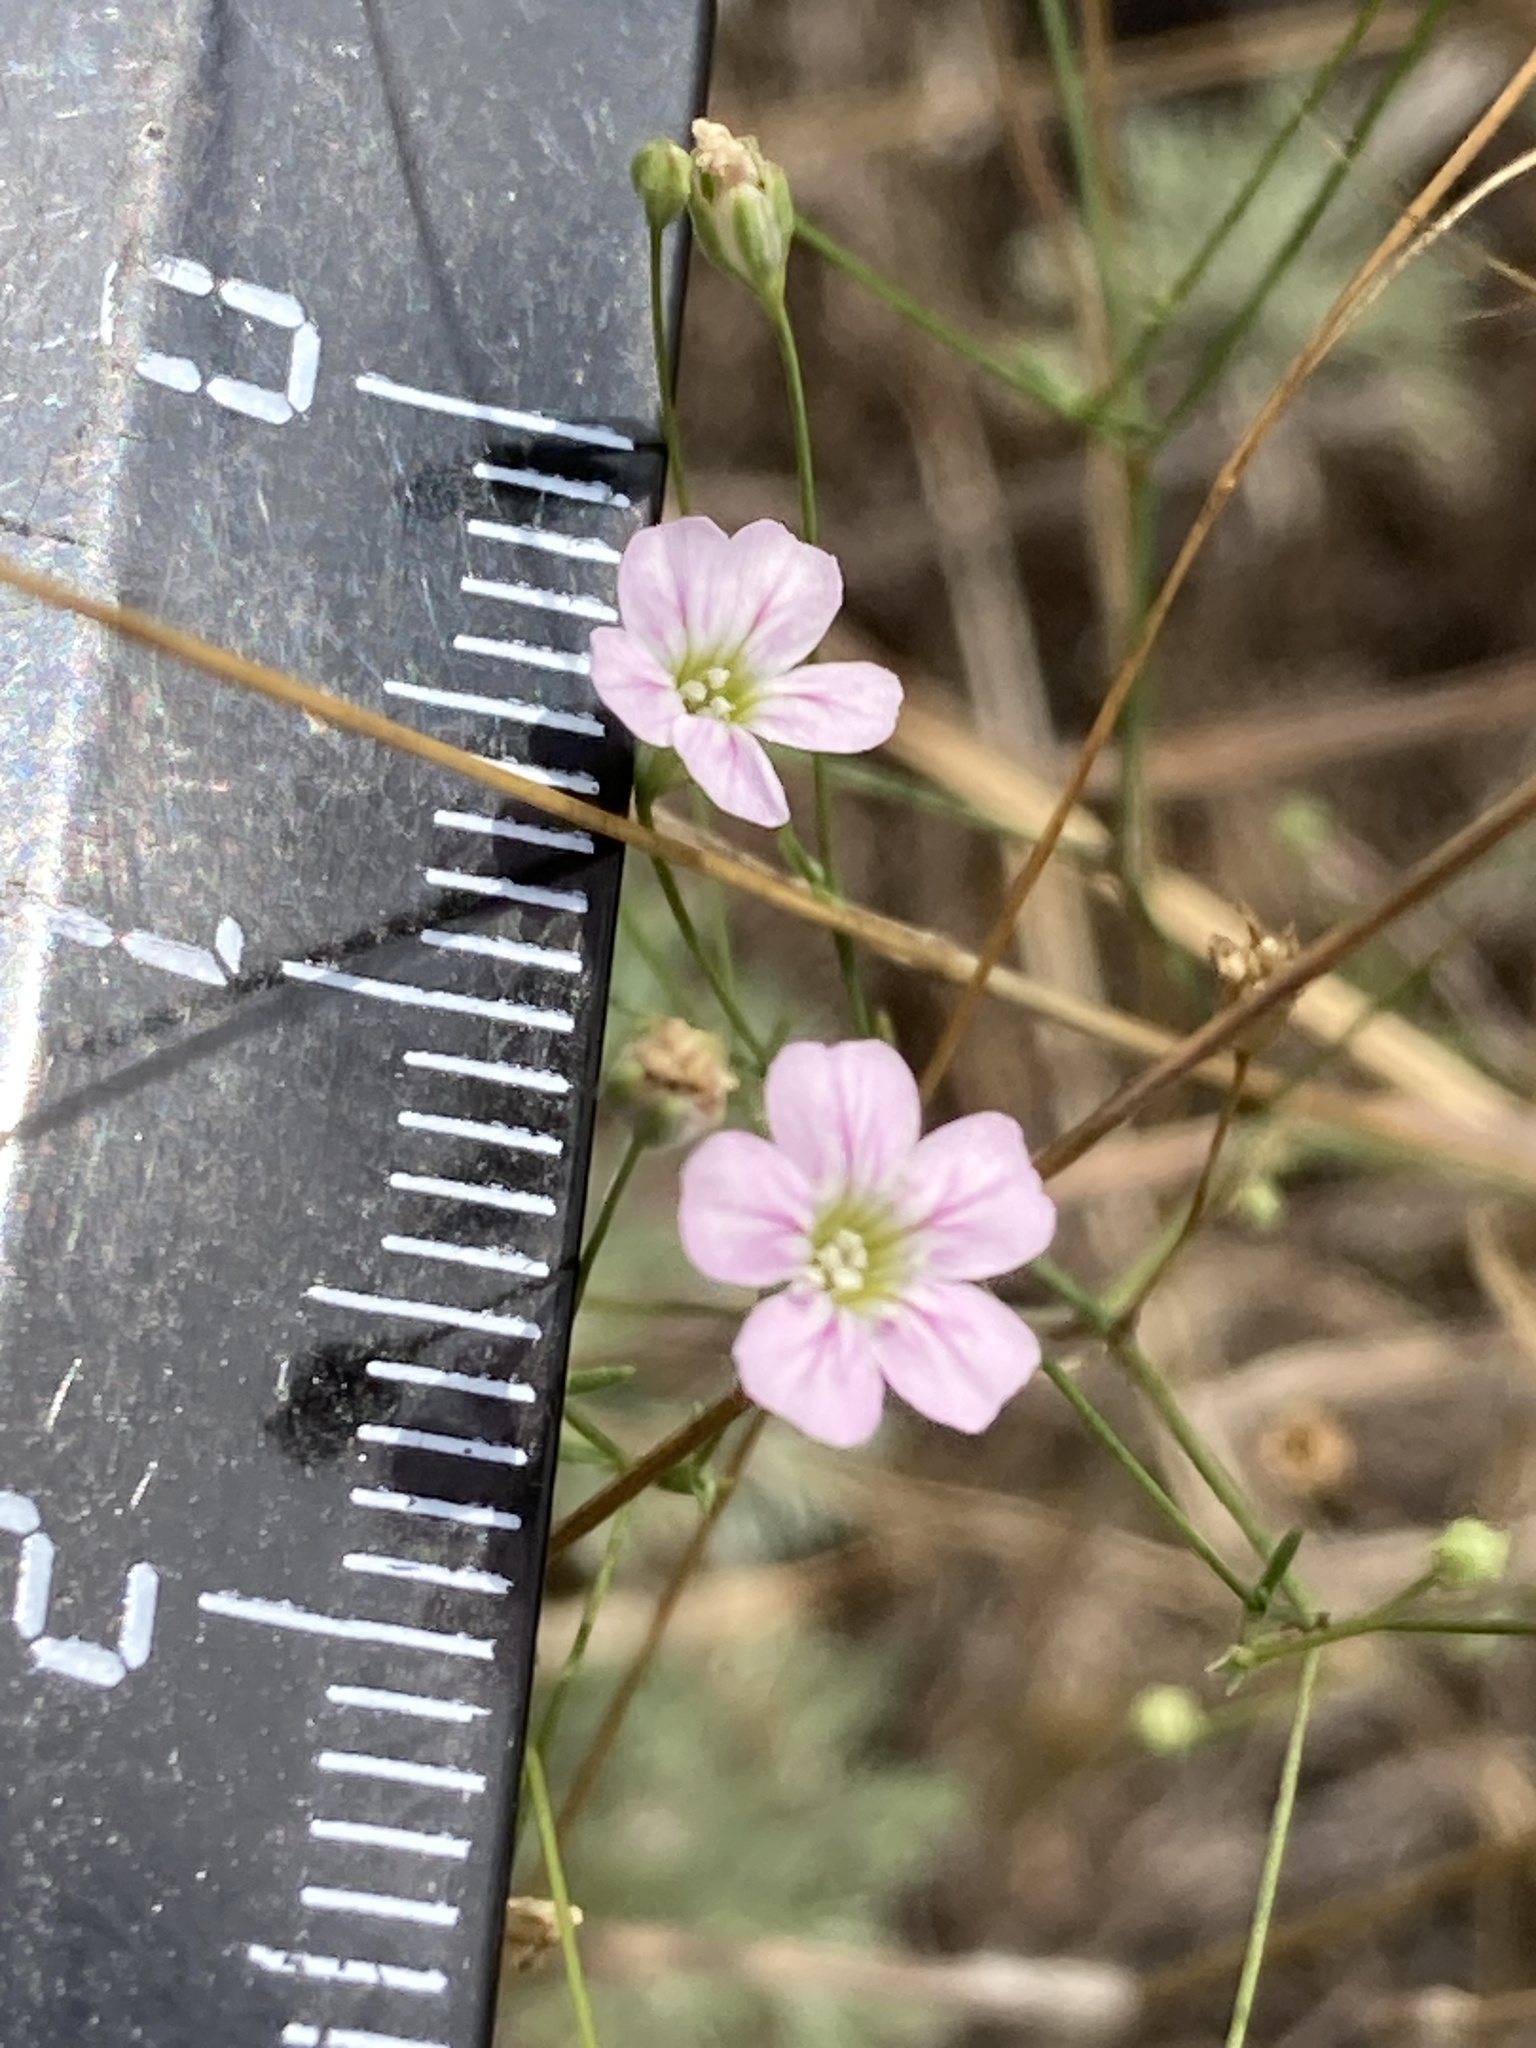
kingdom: Plantae
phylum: Tracheophyta
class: Magnoliopsida
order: Caryophyllales
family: Caryophyllaceae
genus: Psammophiliella
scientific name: Psammophiliella muralis
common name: Cushion baby's-breath
